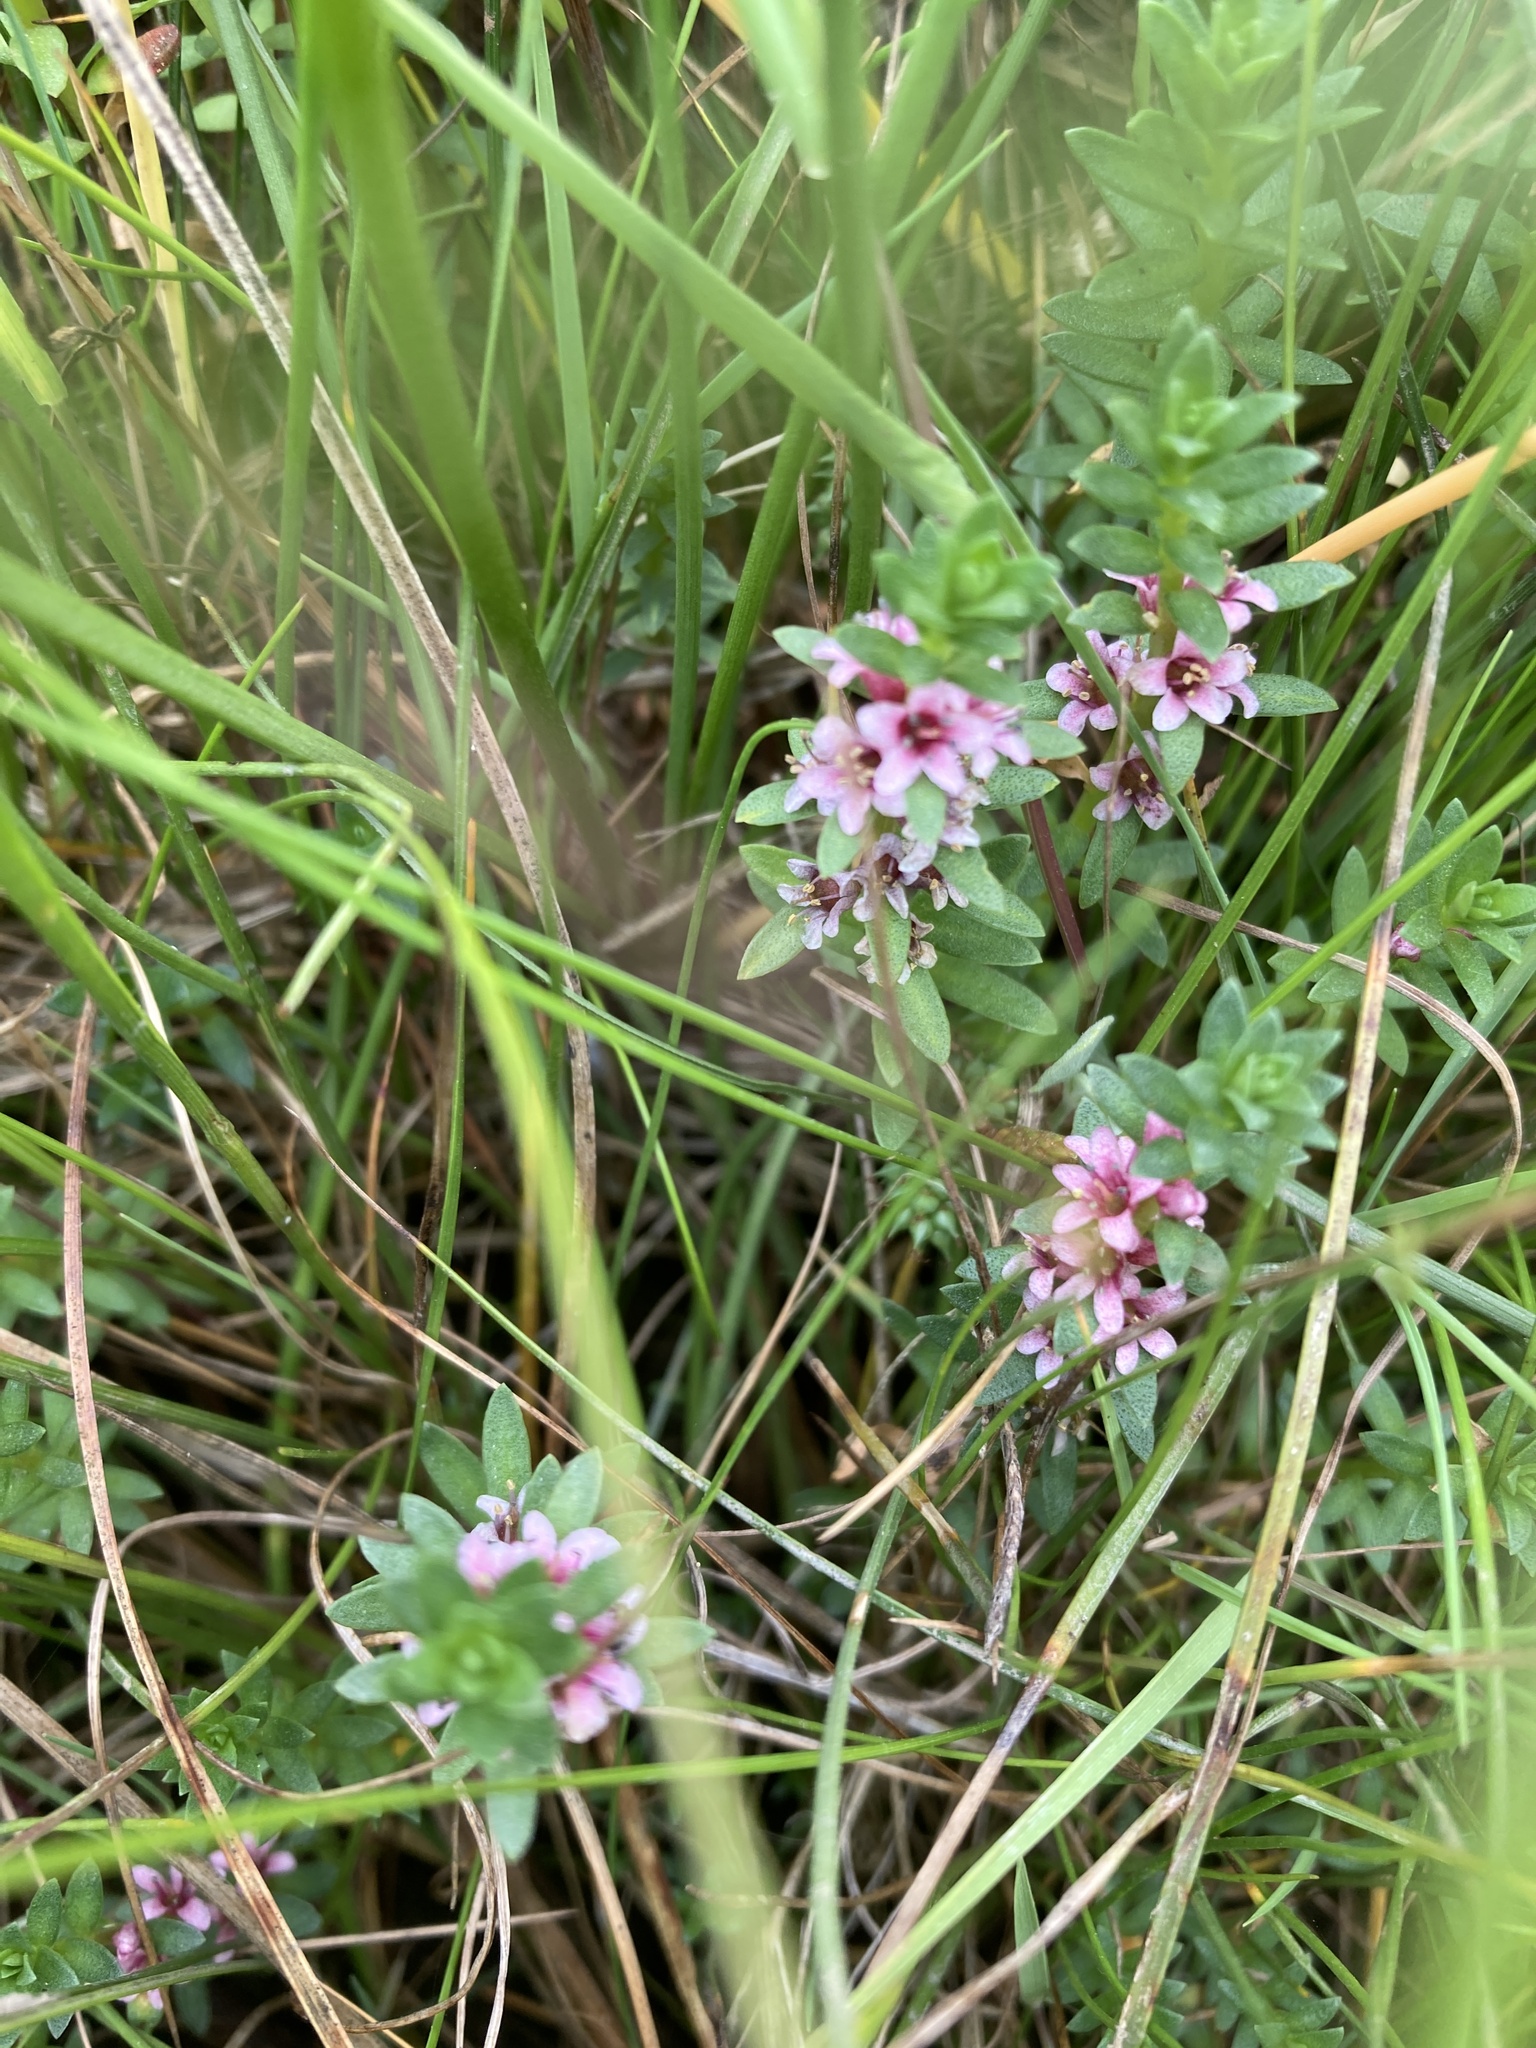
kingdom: Plantae
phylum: Tracheophyta
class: Magnoliopsida
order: Ericales
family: Primulaceae
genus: Lysimachia
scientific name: Lysimachia maritima
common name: Sea milkwort
